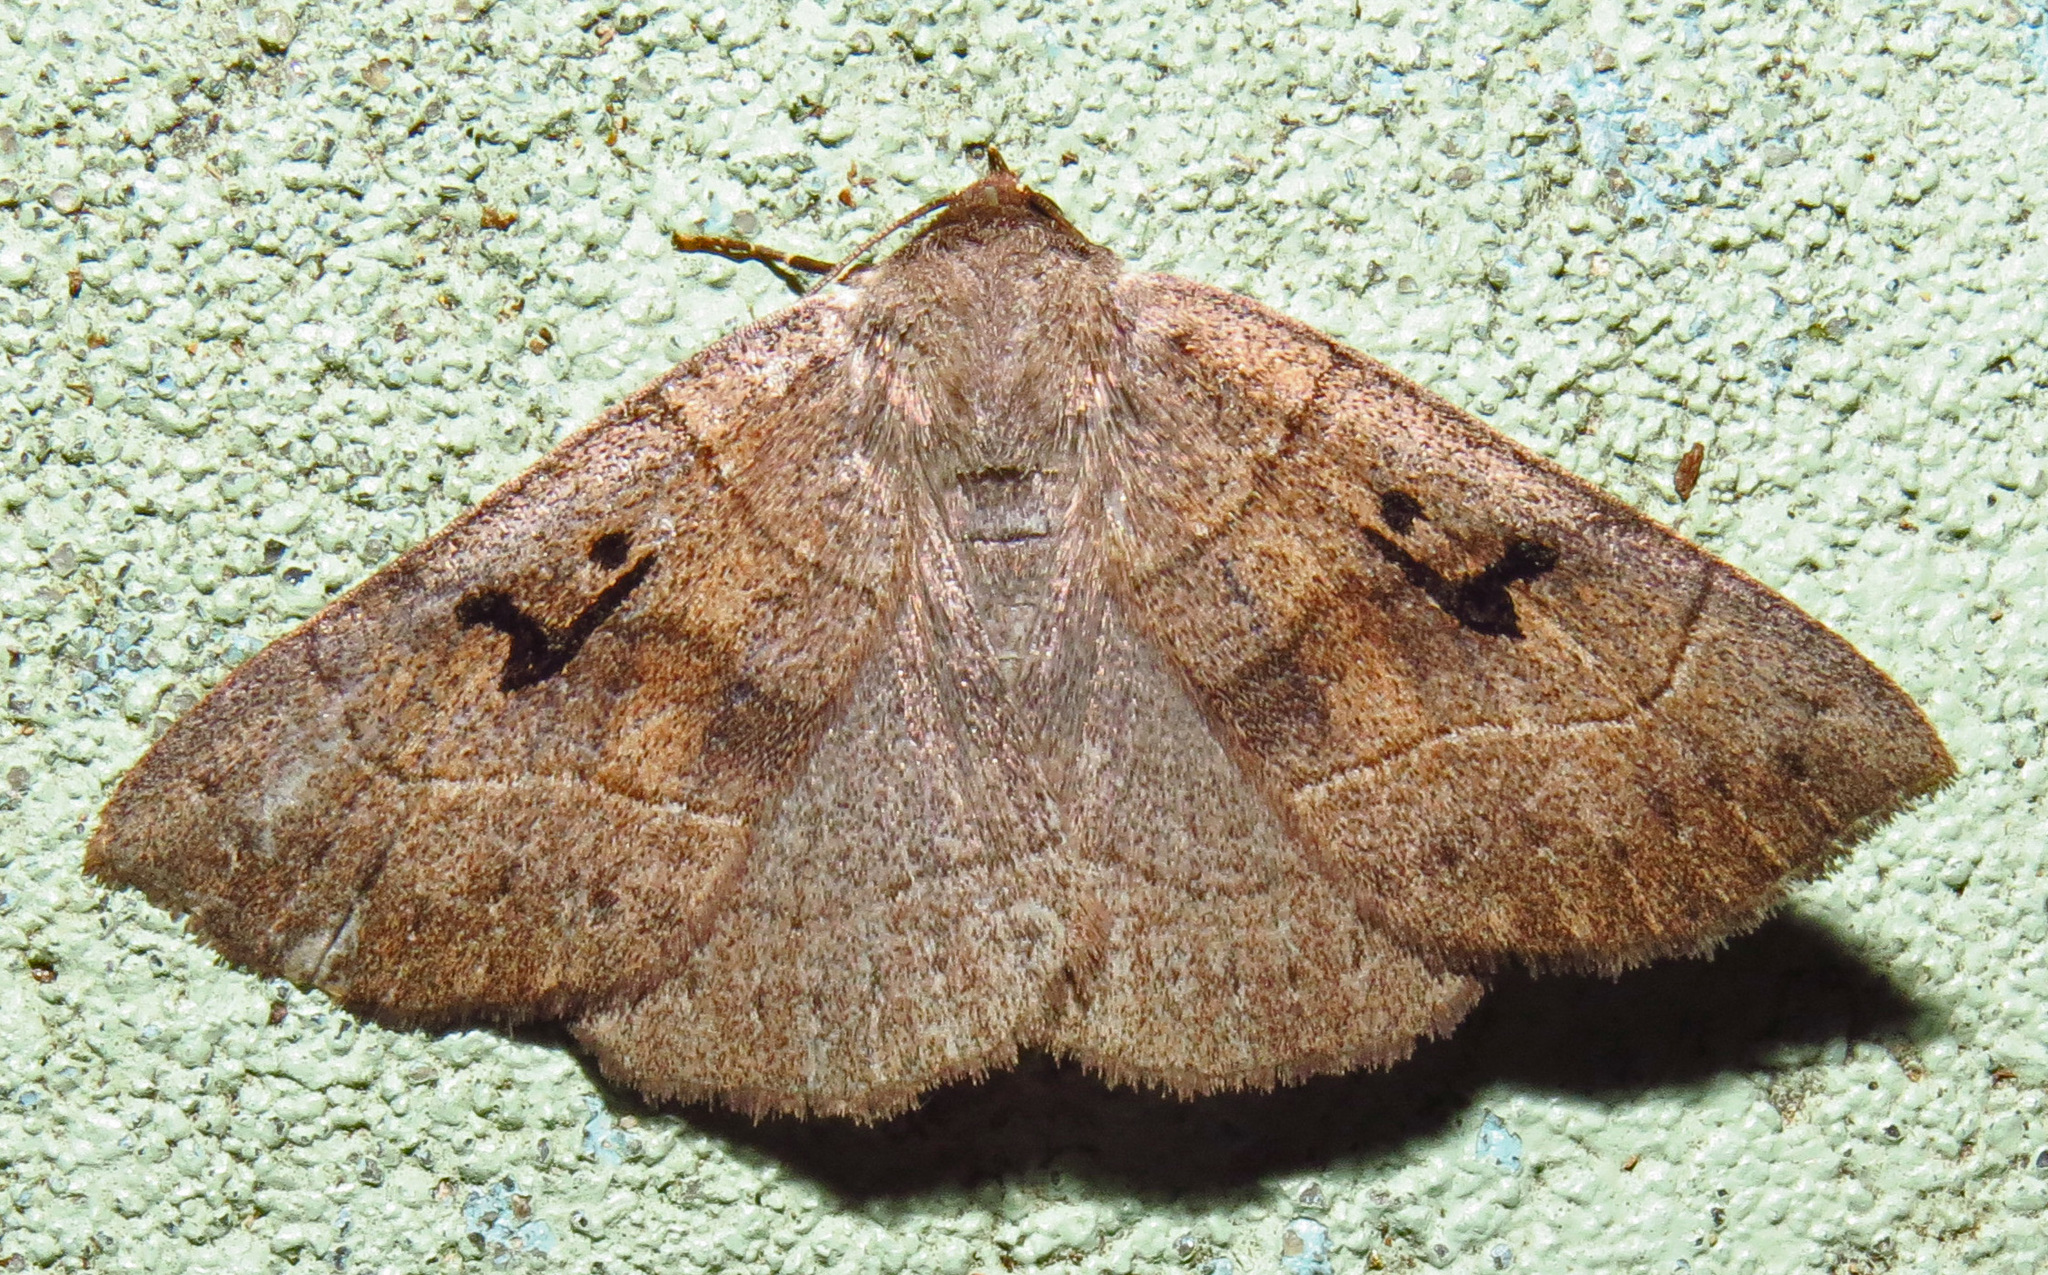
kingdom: Animalia
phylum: Arthropoda
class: Insecta
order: Lepidoptera
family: Erebidae
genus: Panopoda
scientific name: Panopoda carneicosta
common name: Brown panopoda moth
